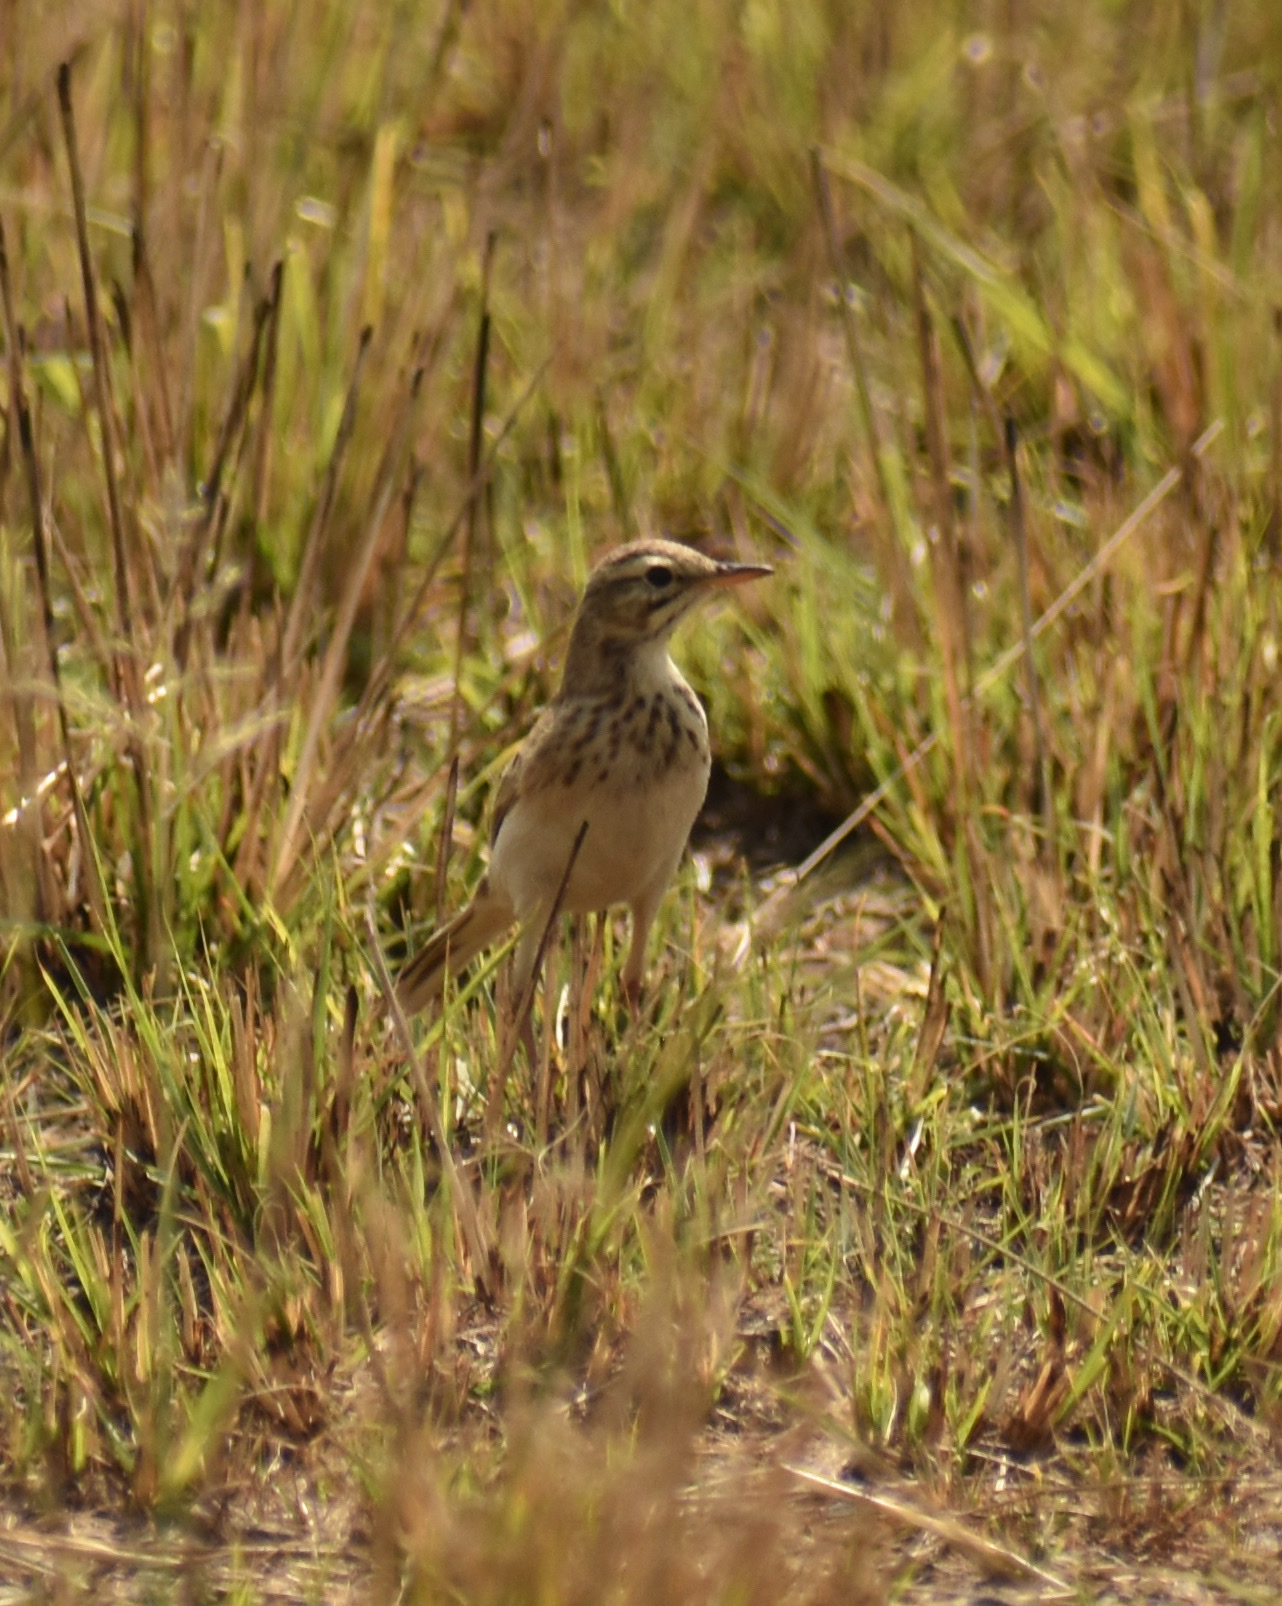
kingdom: Animalia
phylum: Chordata
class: Aves
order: Passeriformes
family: Motacillidae
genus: Anthus
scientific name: Anthus cinnamomeus
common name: African pipit
